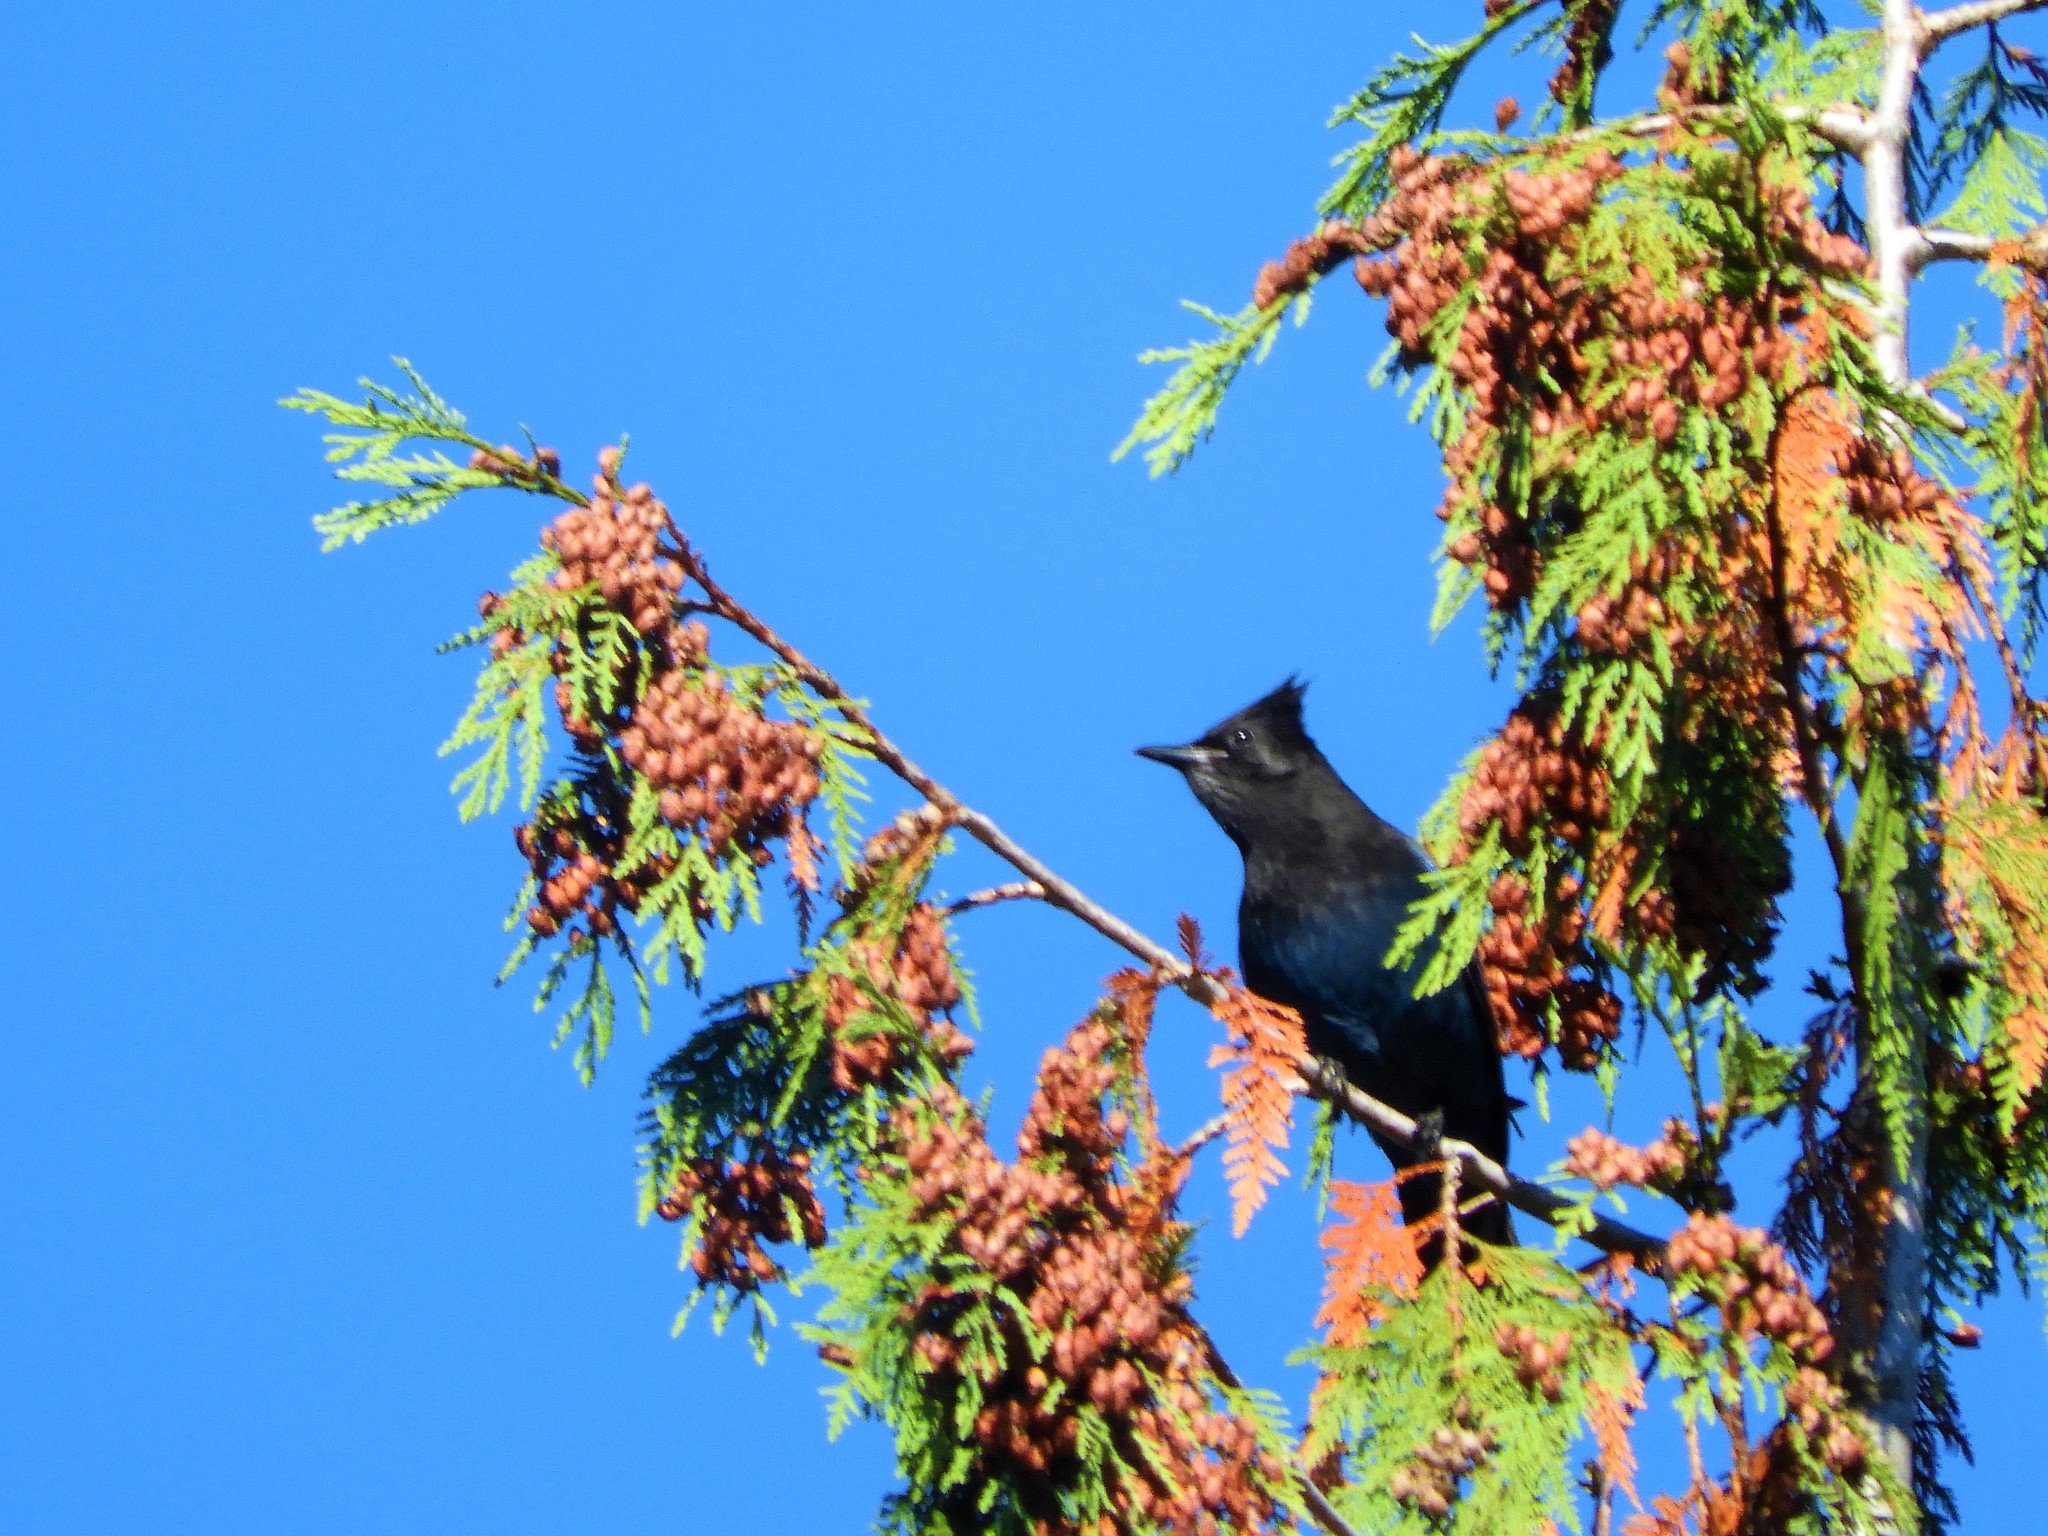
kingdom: Animalia
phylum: Chordata
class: Aves
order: Passeriformes
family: Corvidae
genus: Cyanocitta
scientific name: Cyanocitta stelleri
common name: Steller's jay
